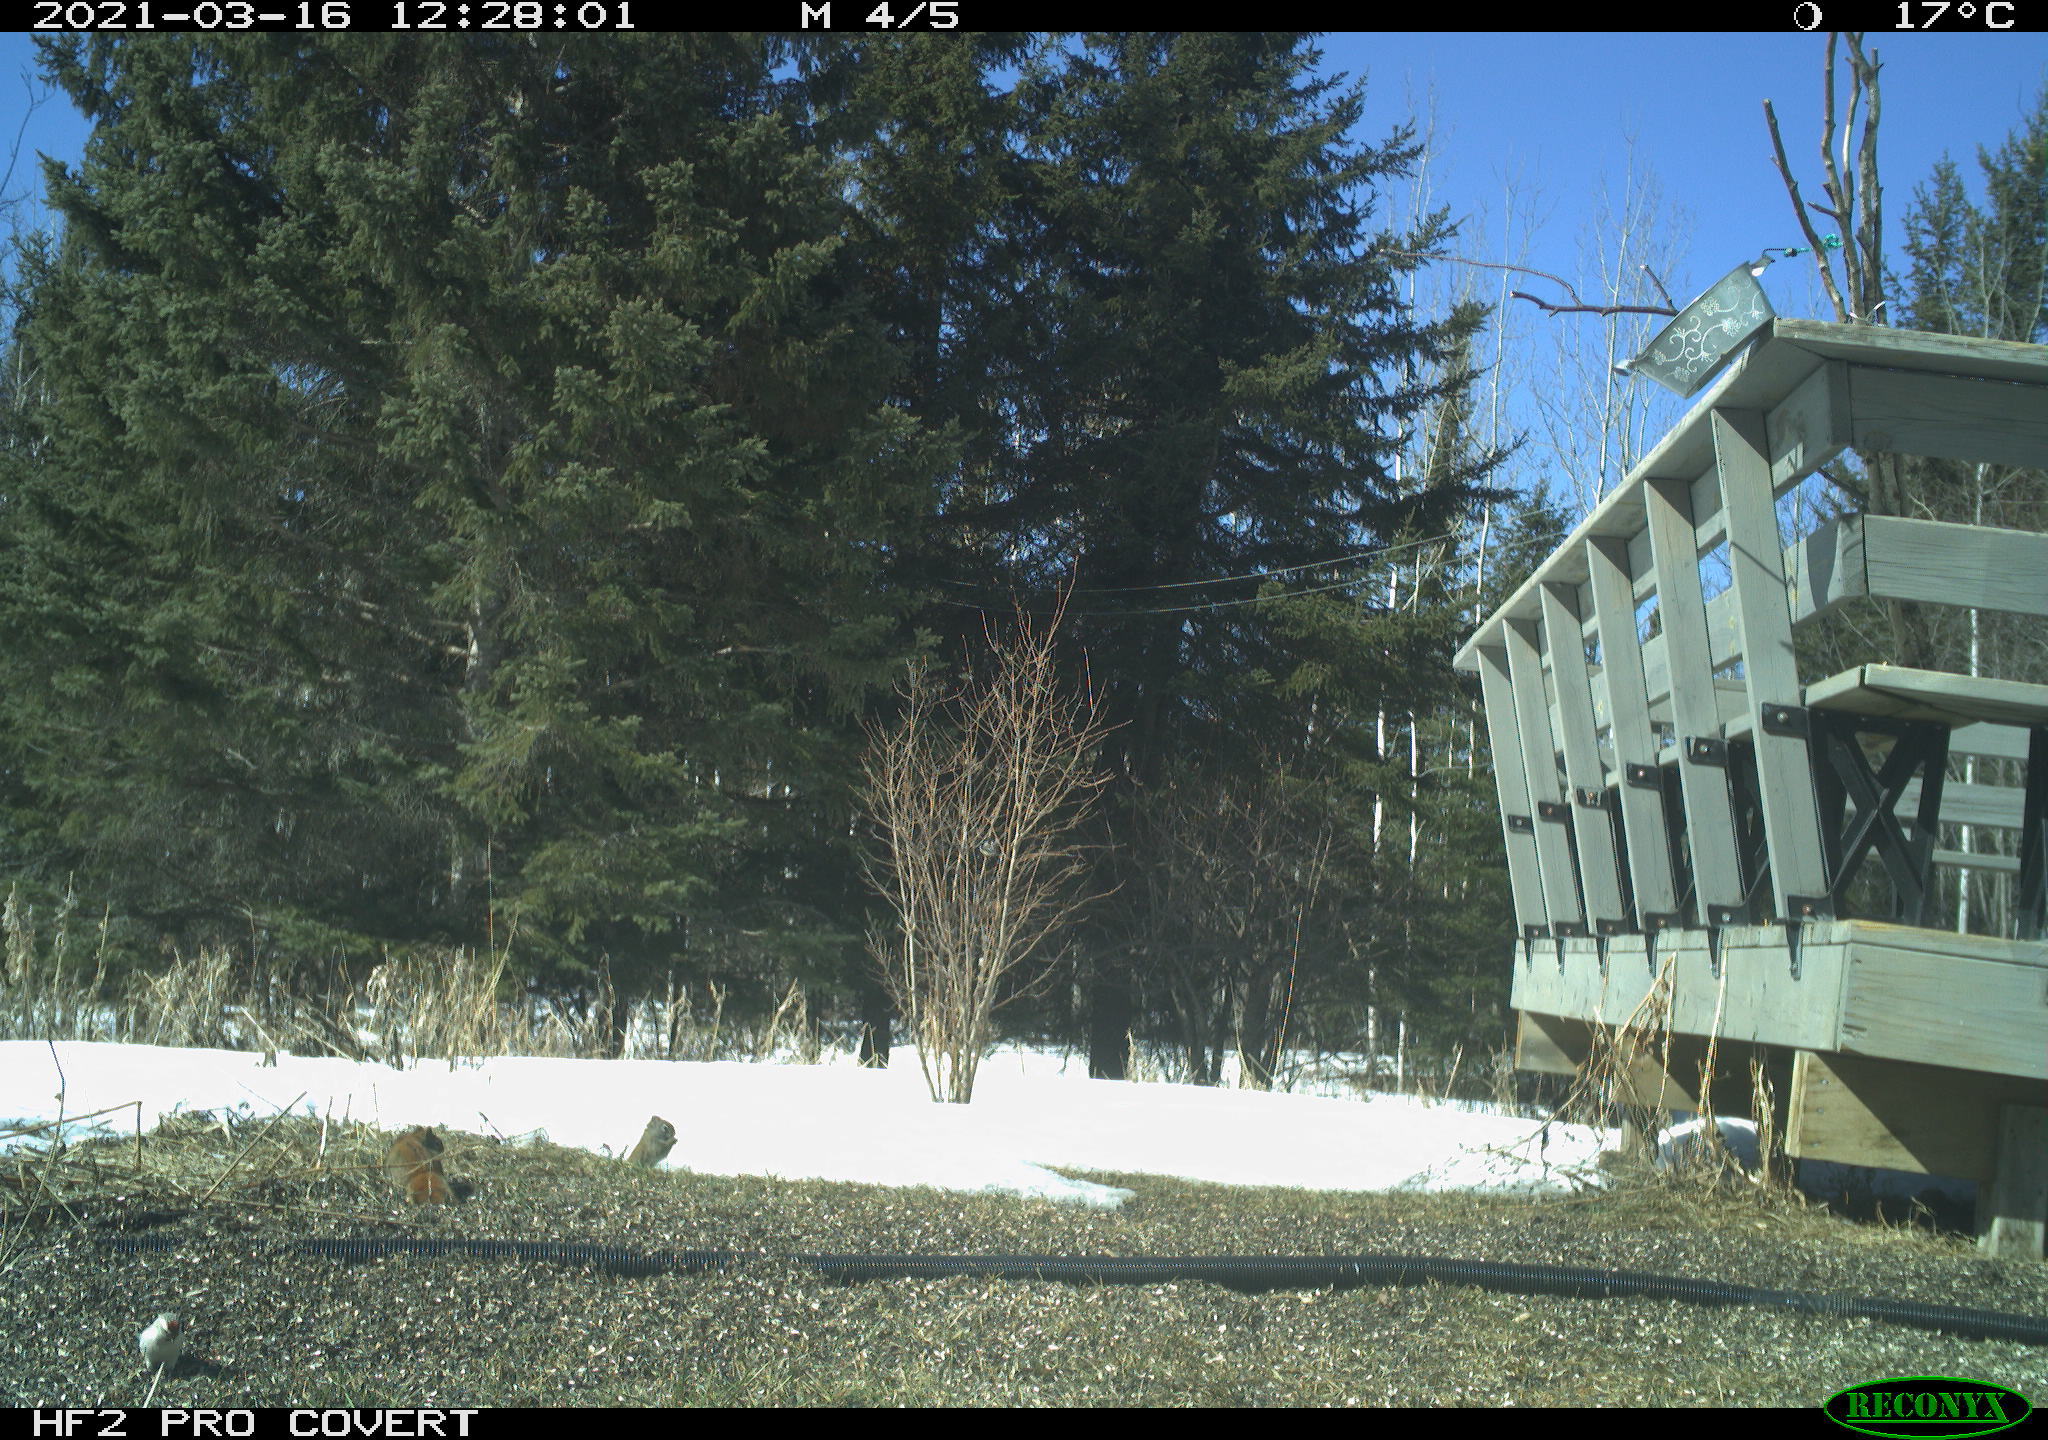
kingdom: Animalia
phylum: Chordata
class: Aves
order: Passeriformes
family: Fringillidae
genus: Acanthis
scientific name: Acanthis hornemanni
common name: Arctic redpoll
